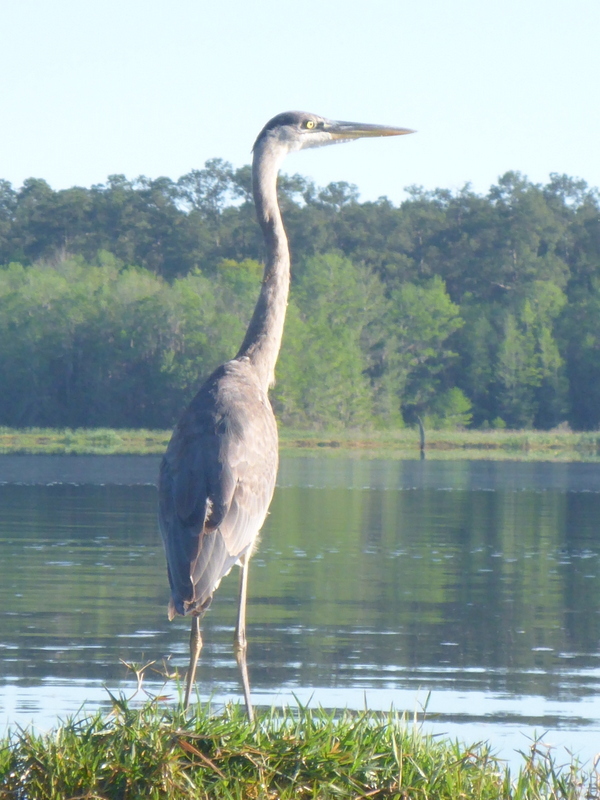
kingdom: Animalia
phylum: Chordata
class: Aves
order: Pelecaniformes
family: Ardeidae
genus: Ardea
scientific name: Ardea herodias
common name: Great blue heron
